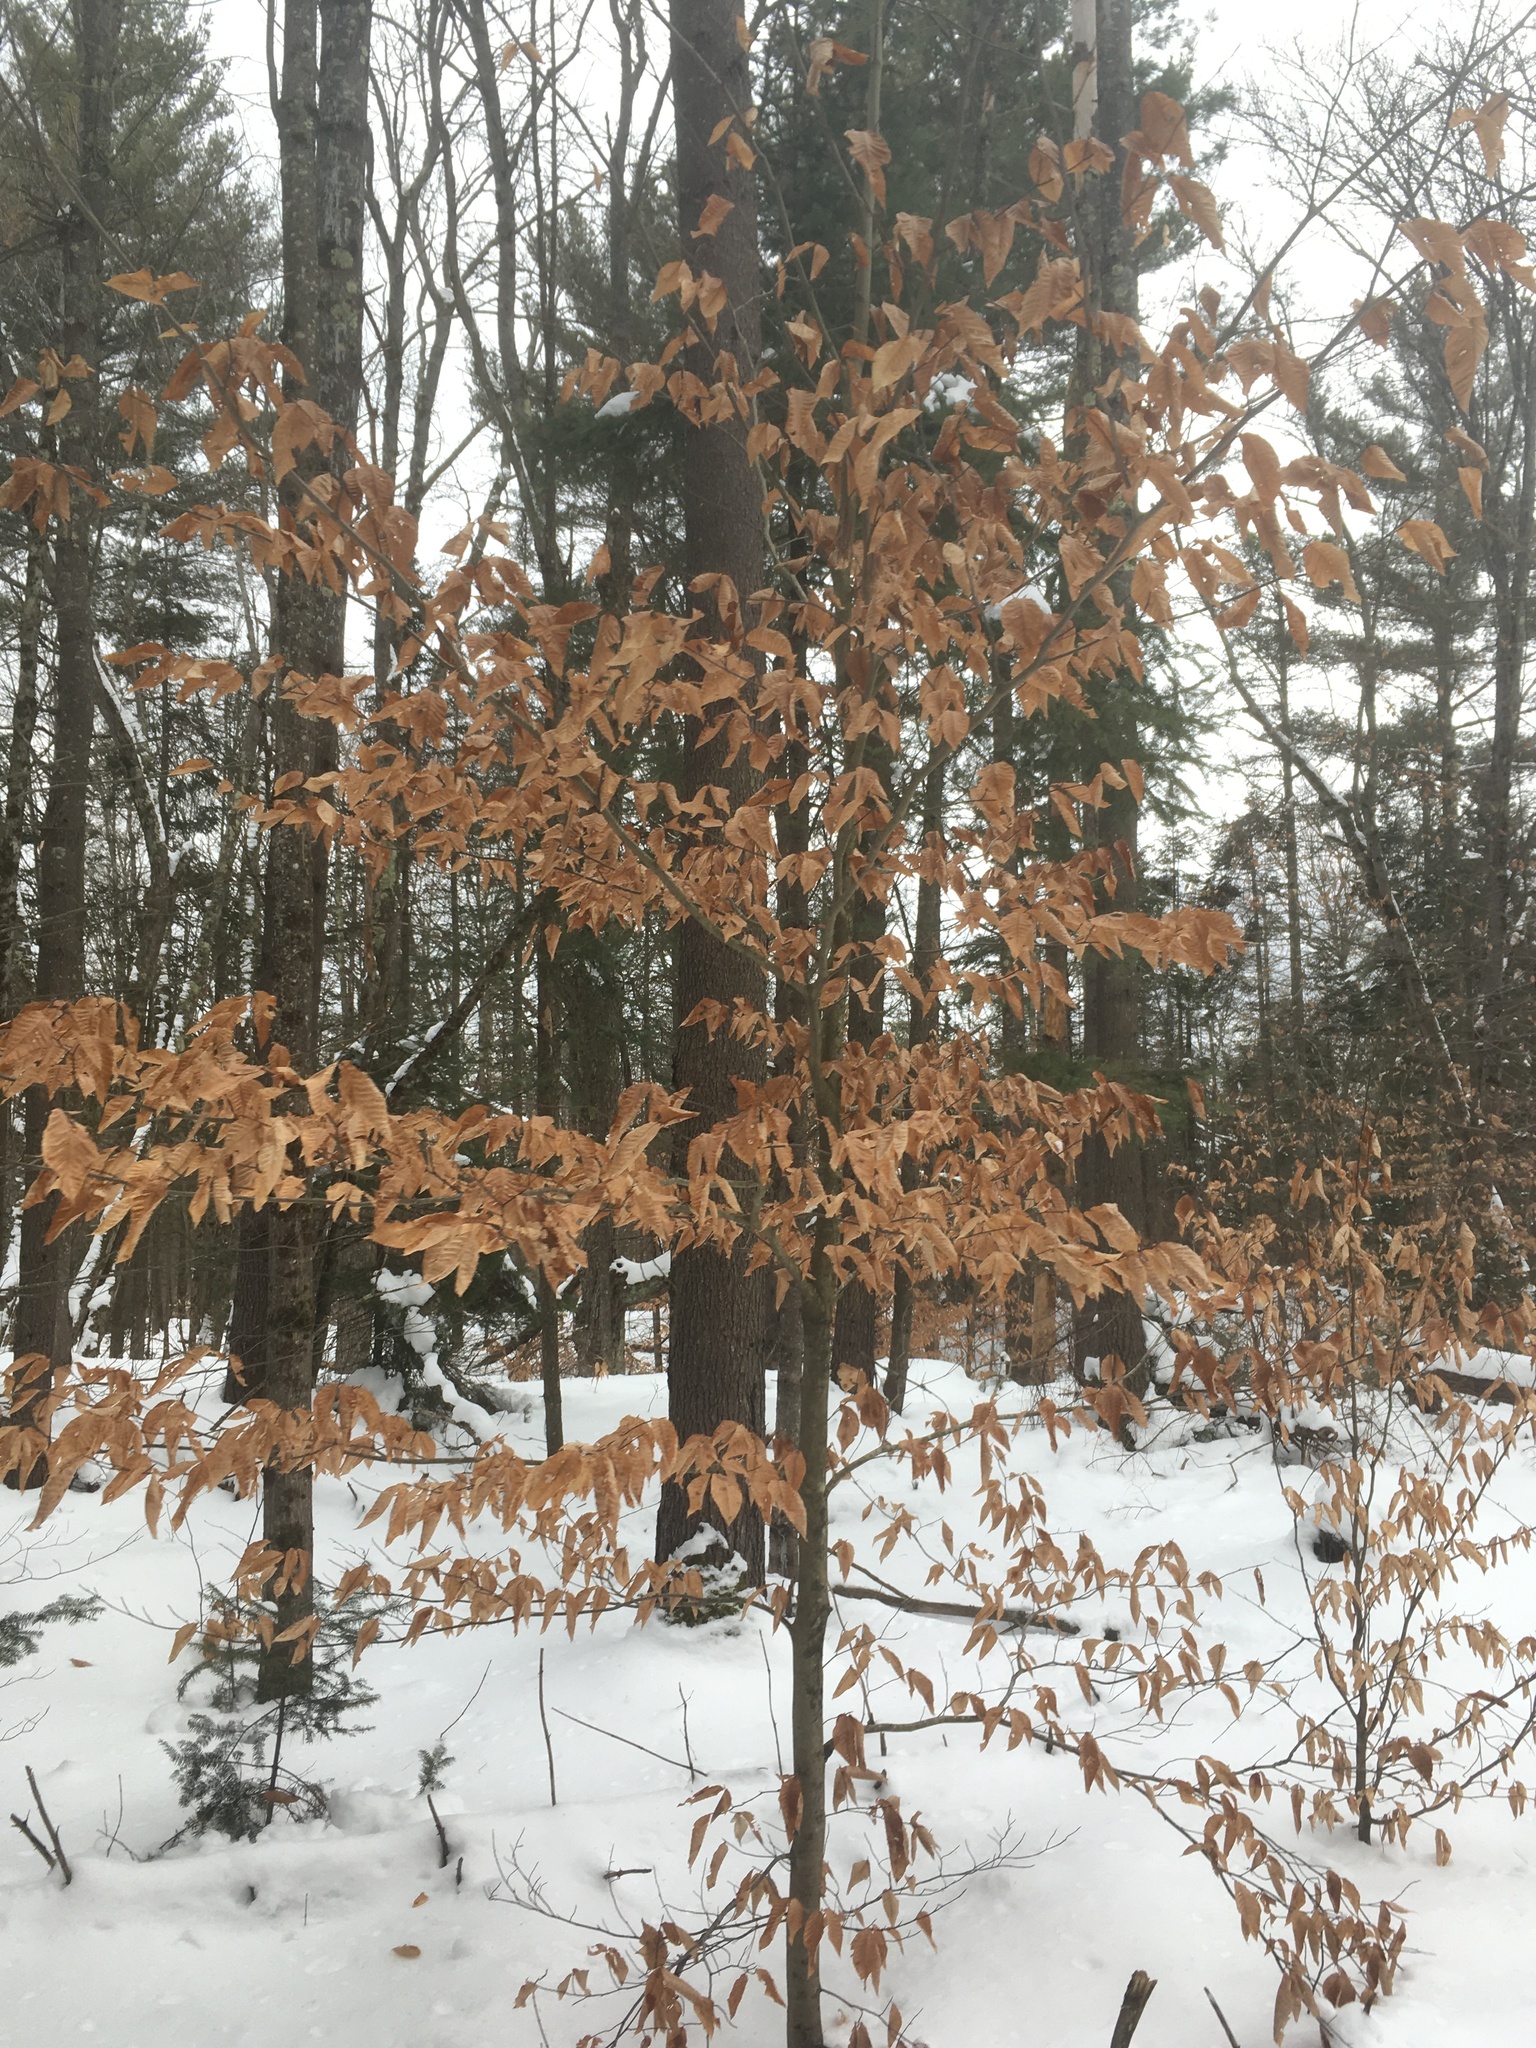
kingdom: Plantae
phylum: Tracheophyta
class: Magnoliopsida
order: Fagales
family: Fagaceae
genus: Fagus
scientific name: Fagus grandifolia
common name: American beech
